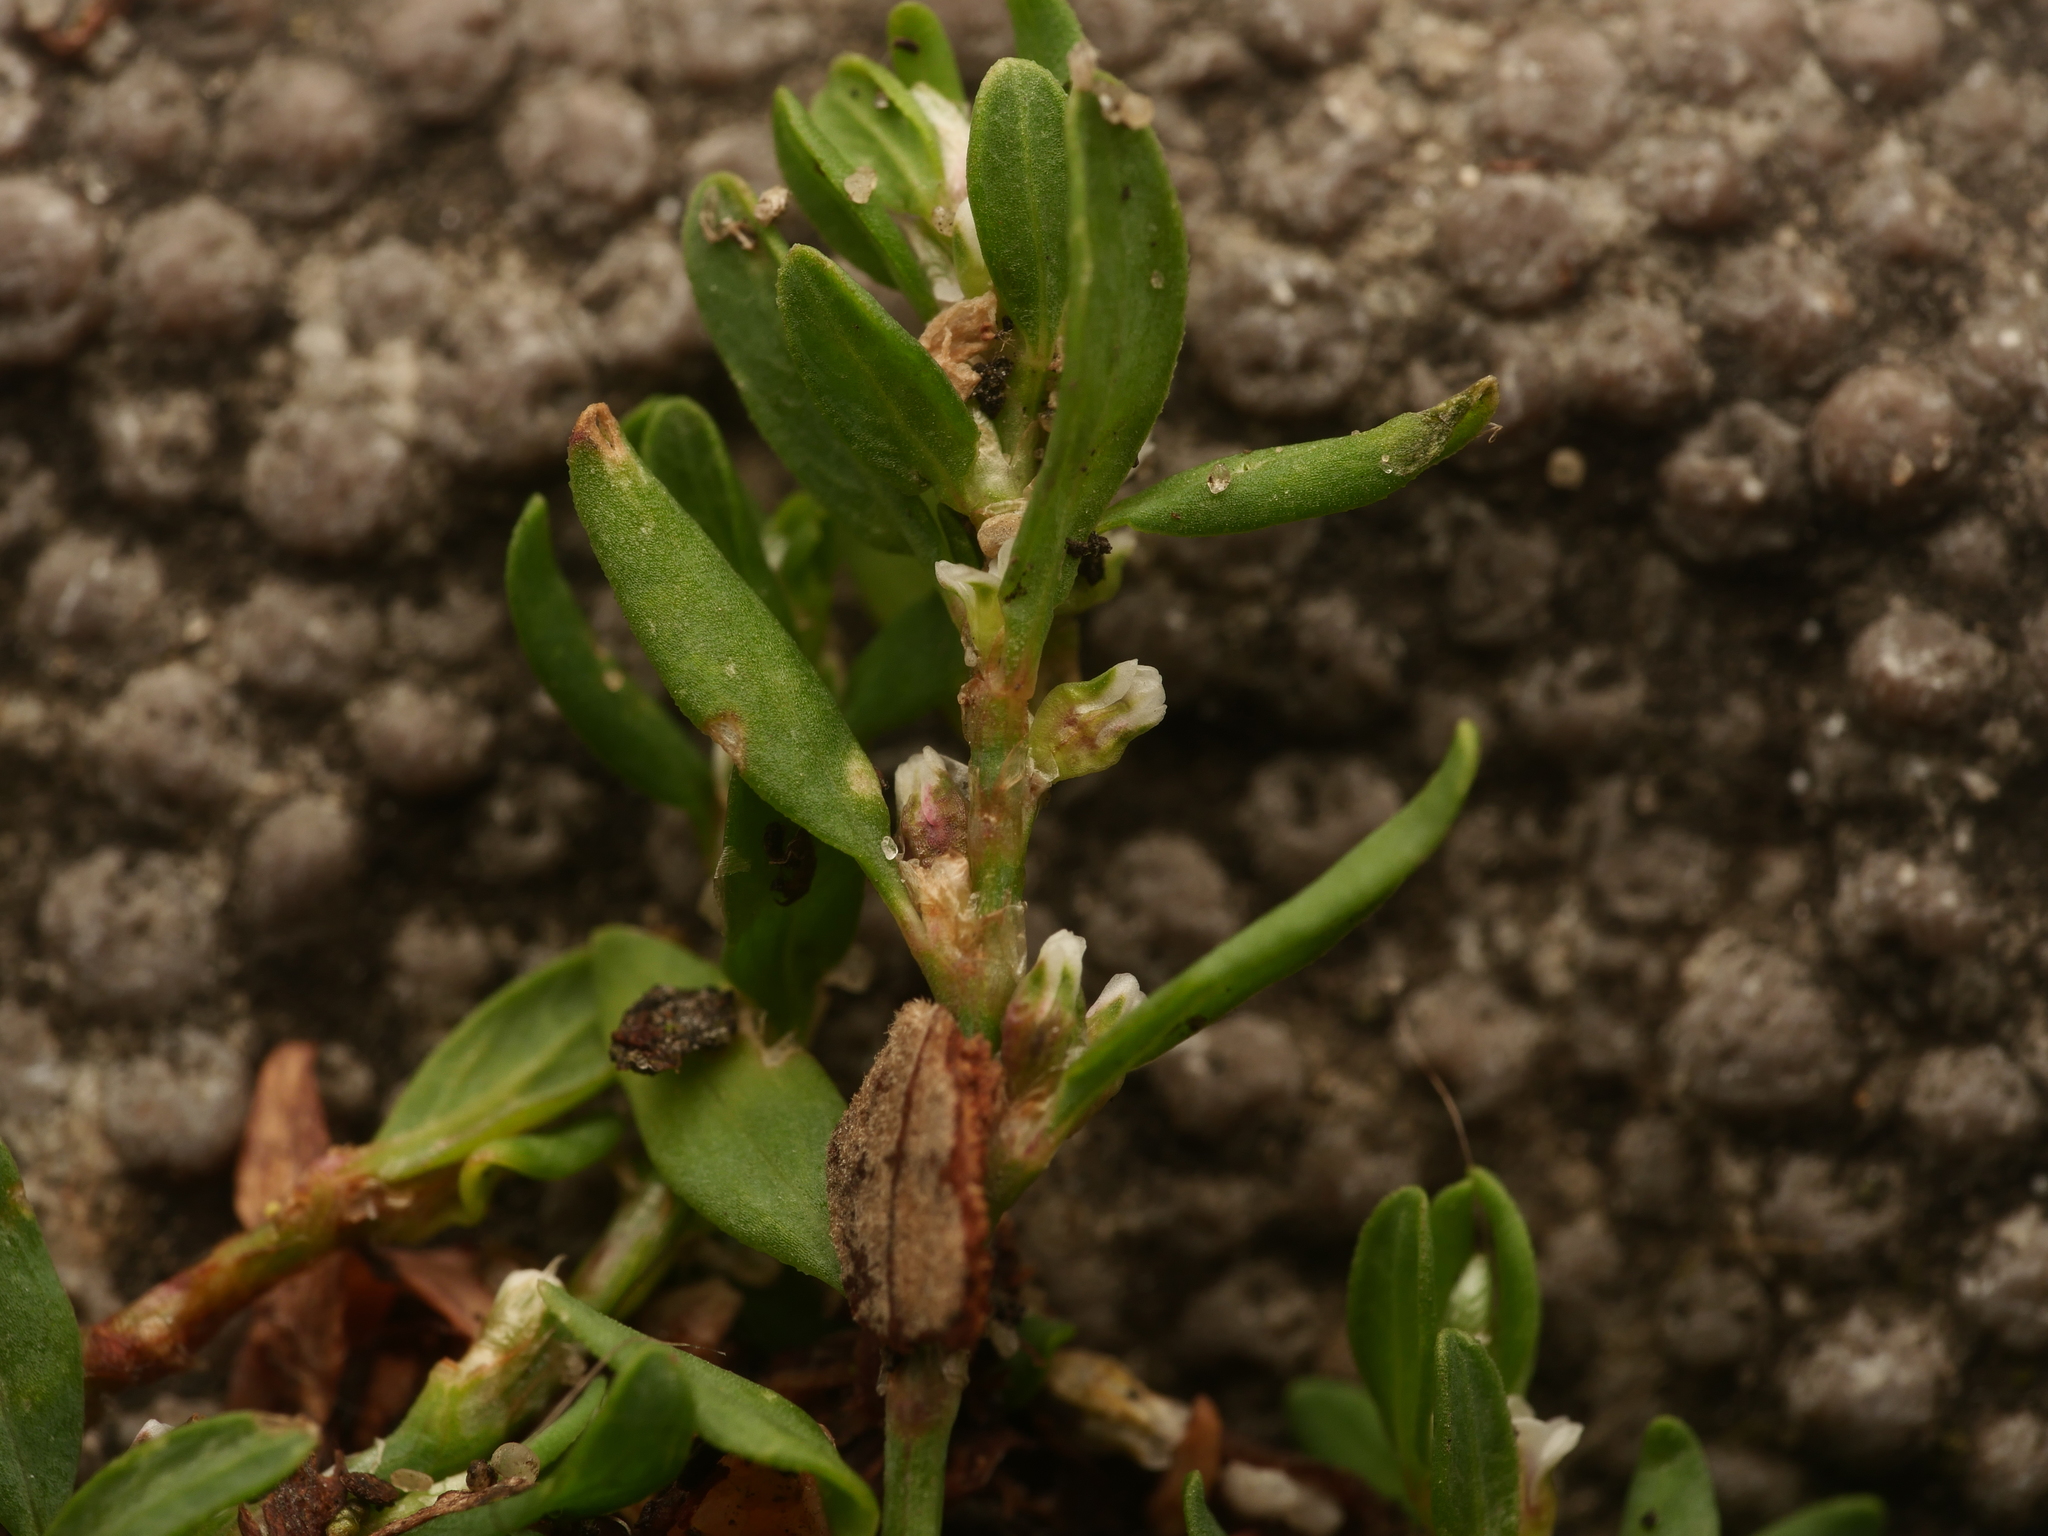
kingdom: Plantae
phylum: Tracheophyta
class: Magnoliopsida
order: Caryophyllales
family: Polygonaceae
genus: Polygonum
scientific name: Polygonum arenastrum
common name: Equal-leaved knotgrass
